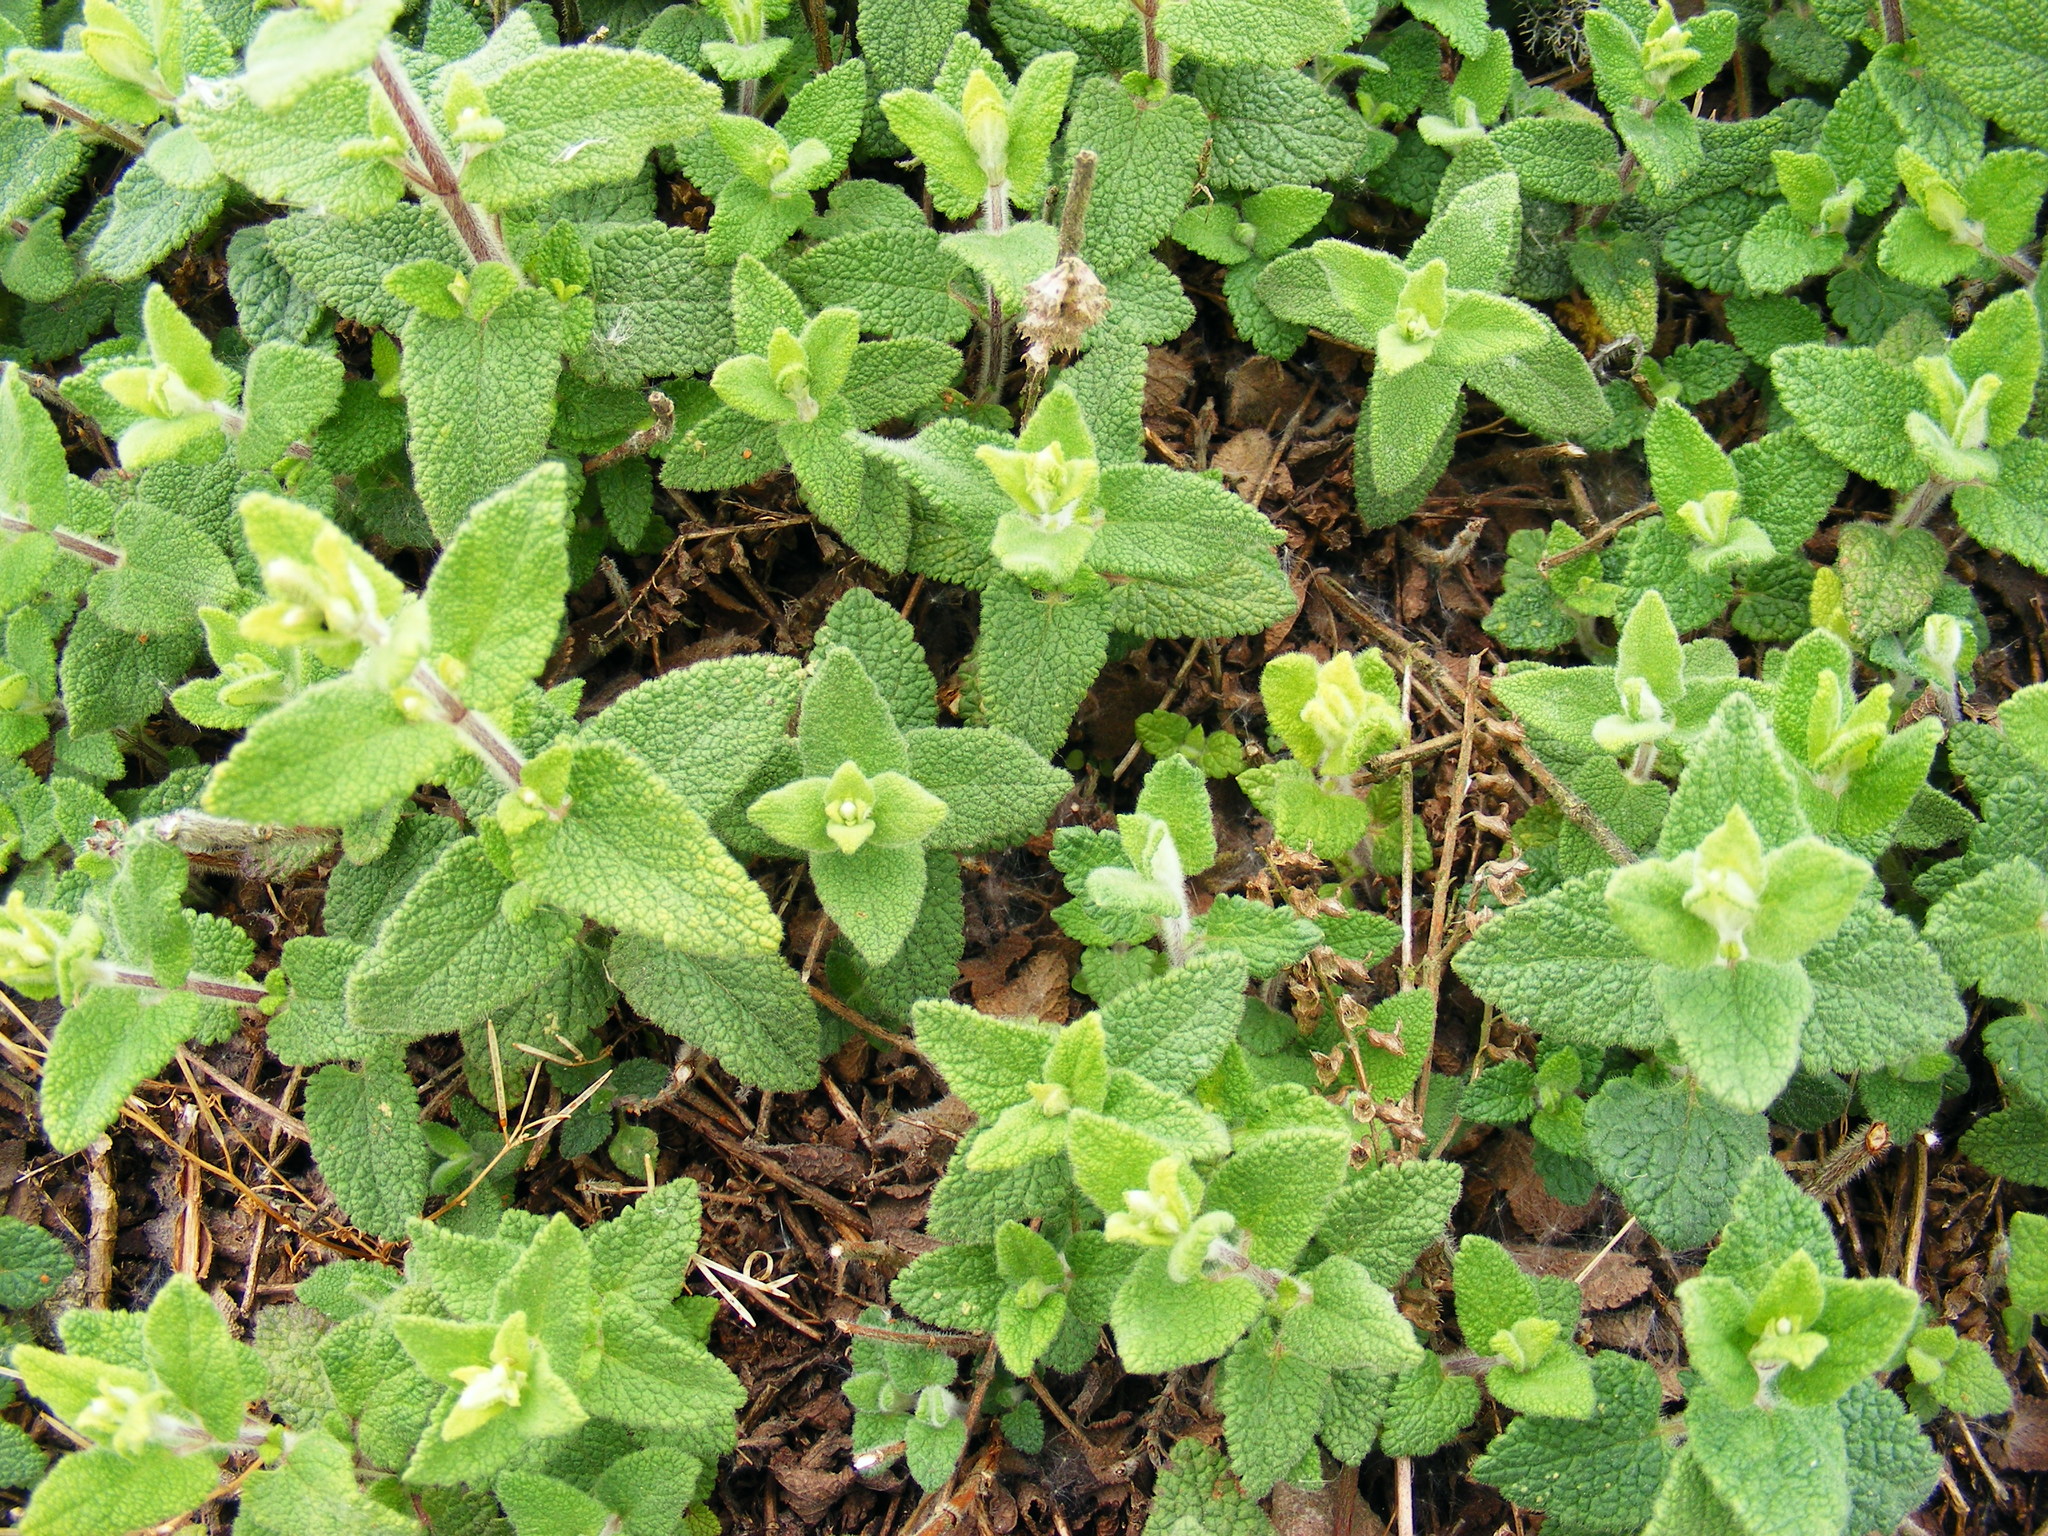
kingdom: Plantae
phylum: Tracheophyta
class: Magnoliopsida
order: Lamiales
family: Lamiaceae
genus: Teucrium
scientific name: Teucrium scorodonia
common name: Woodland germander
